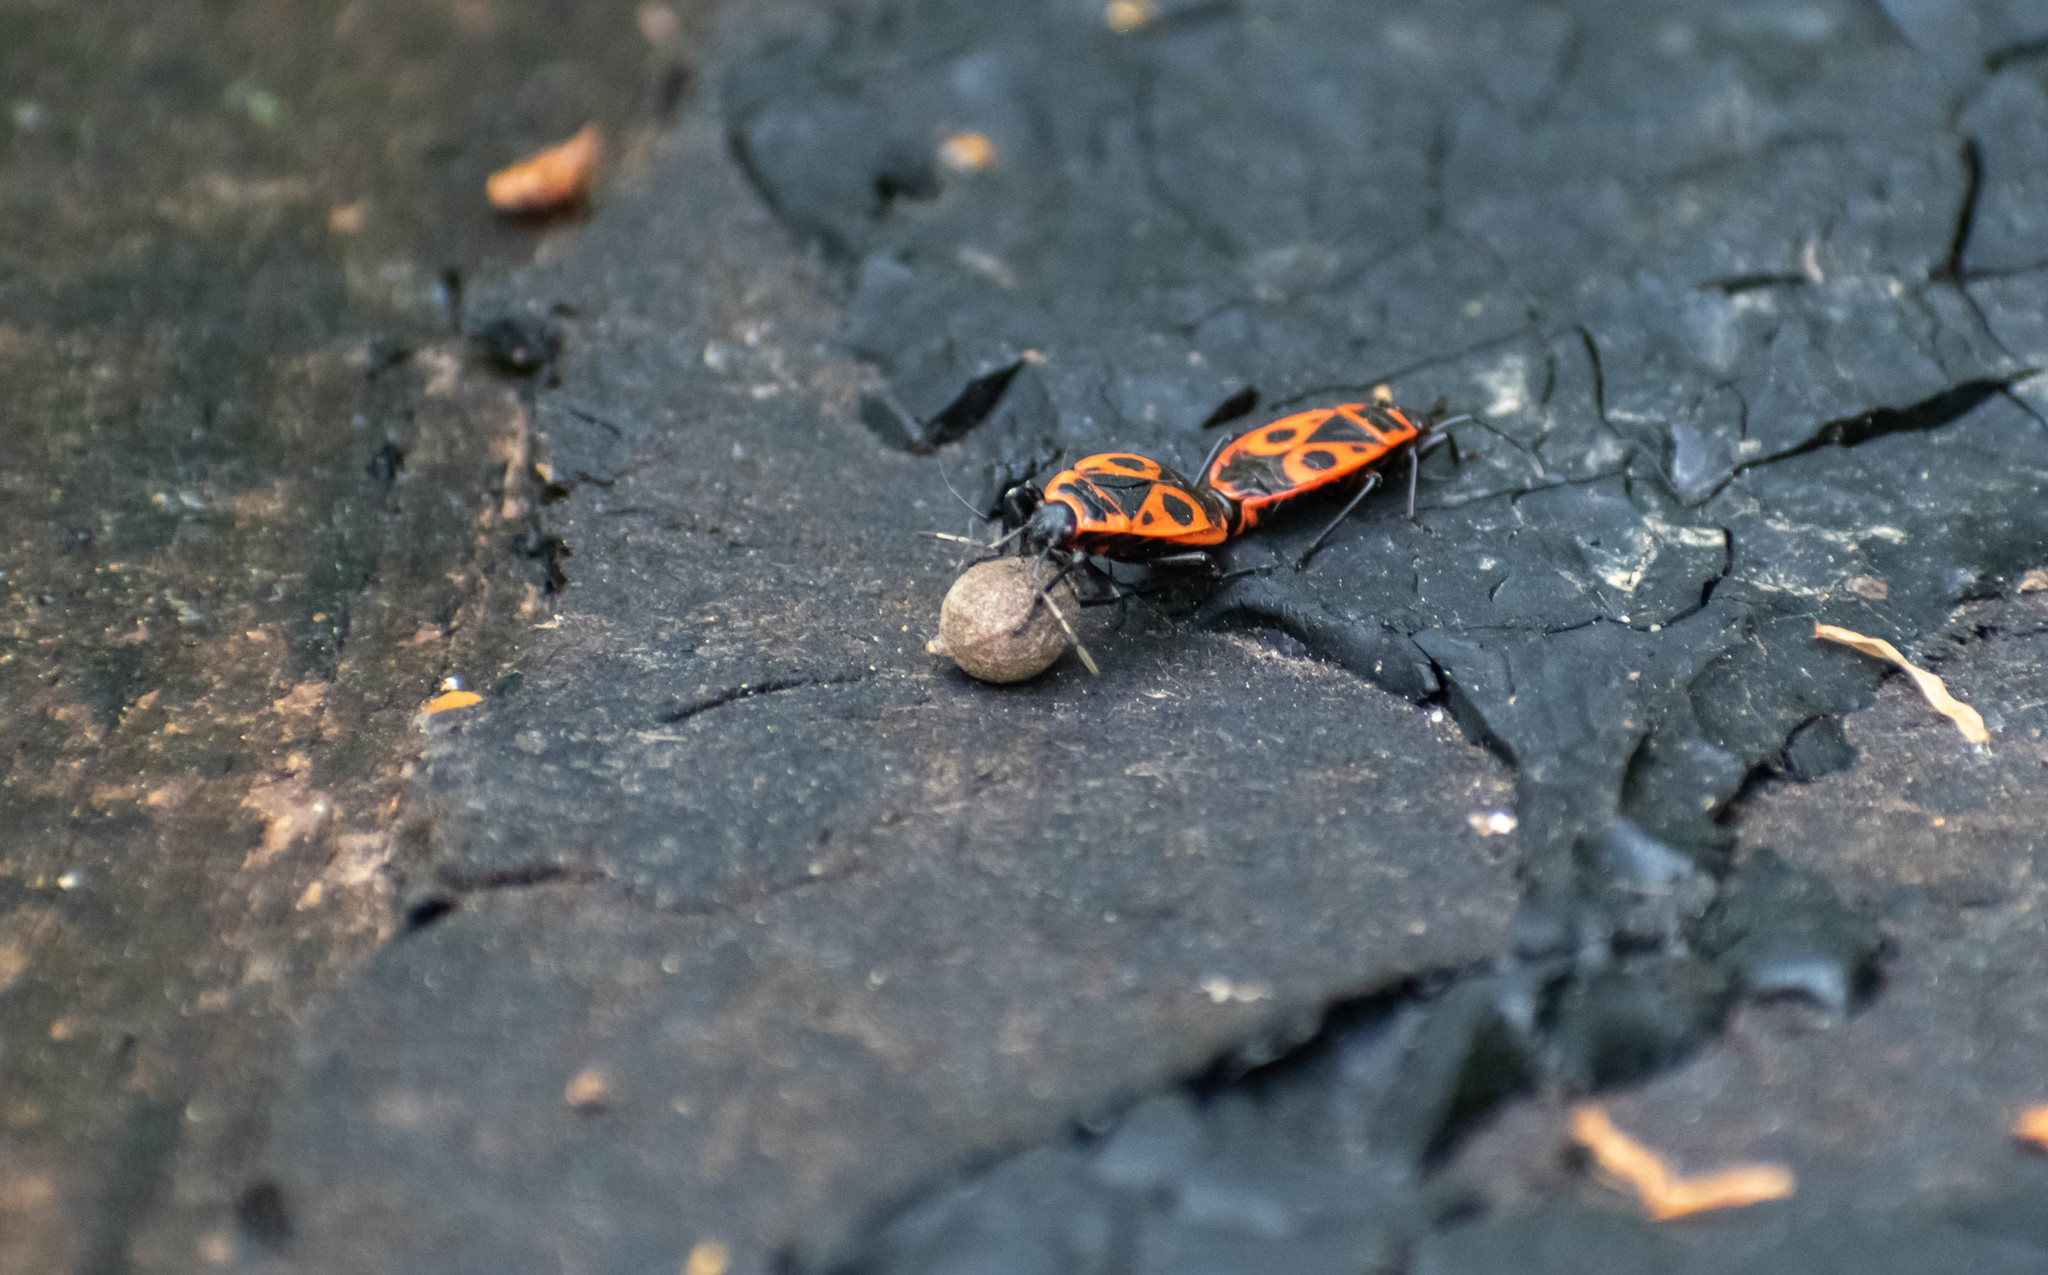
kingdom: Animalia
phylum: Arthropoda
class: Insecta
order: Hemiptera
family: Pyrrhocoridae
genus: Pyrrhocoris
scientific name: Pyrrhocoris apterus
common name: Firebug
